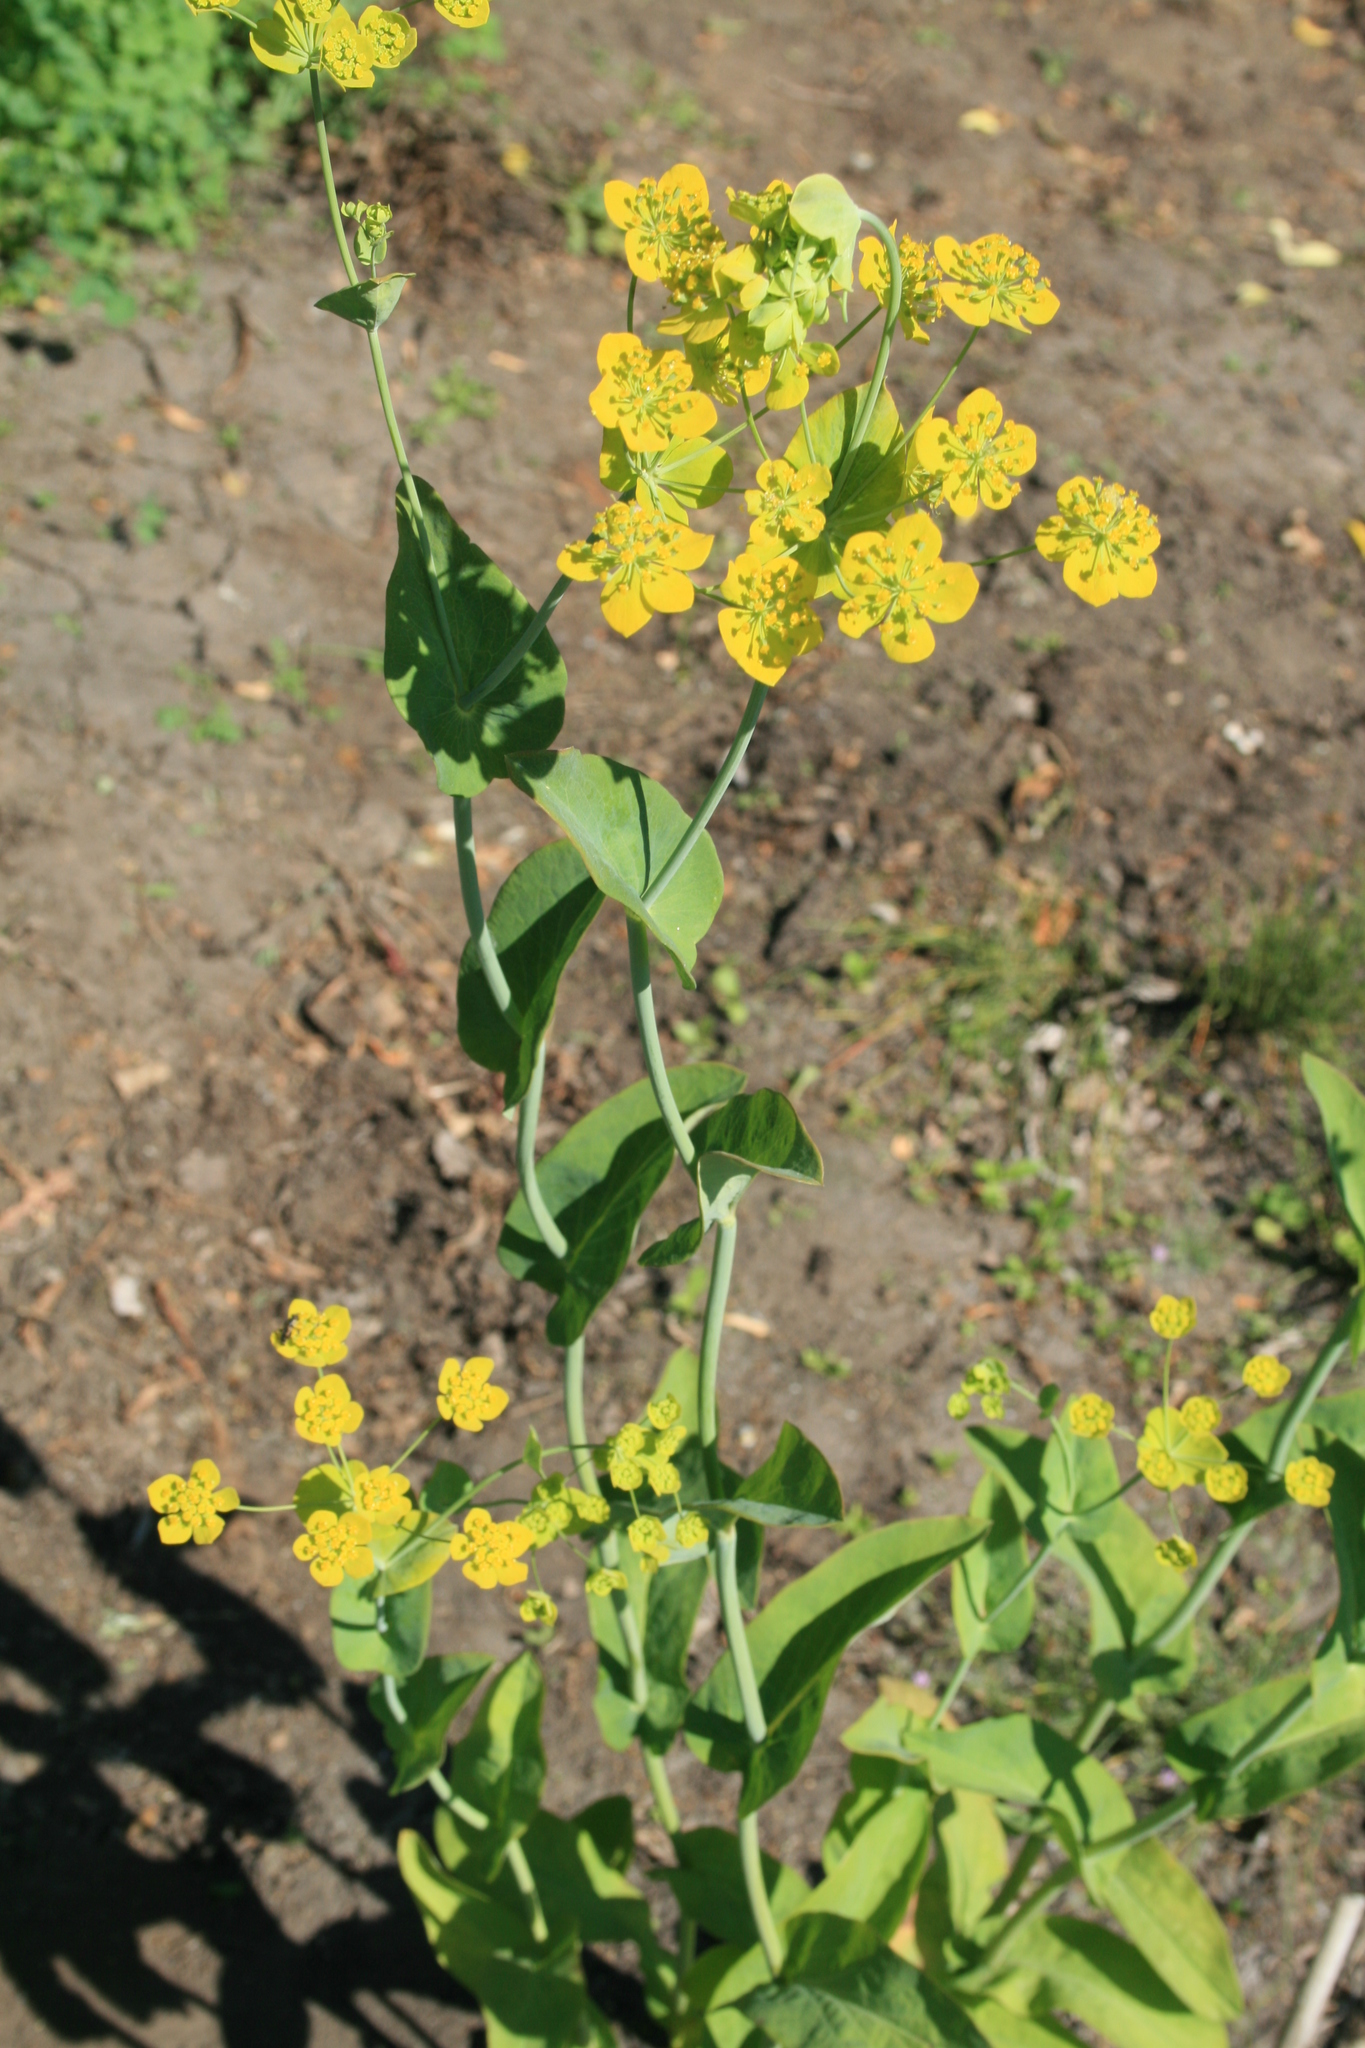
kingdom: Plantae
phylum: Tracheophyta
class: Magnoliopsida
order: Apiales
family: Apiaceae
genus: Bupleurum
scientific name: Bupleurum aureum
